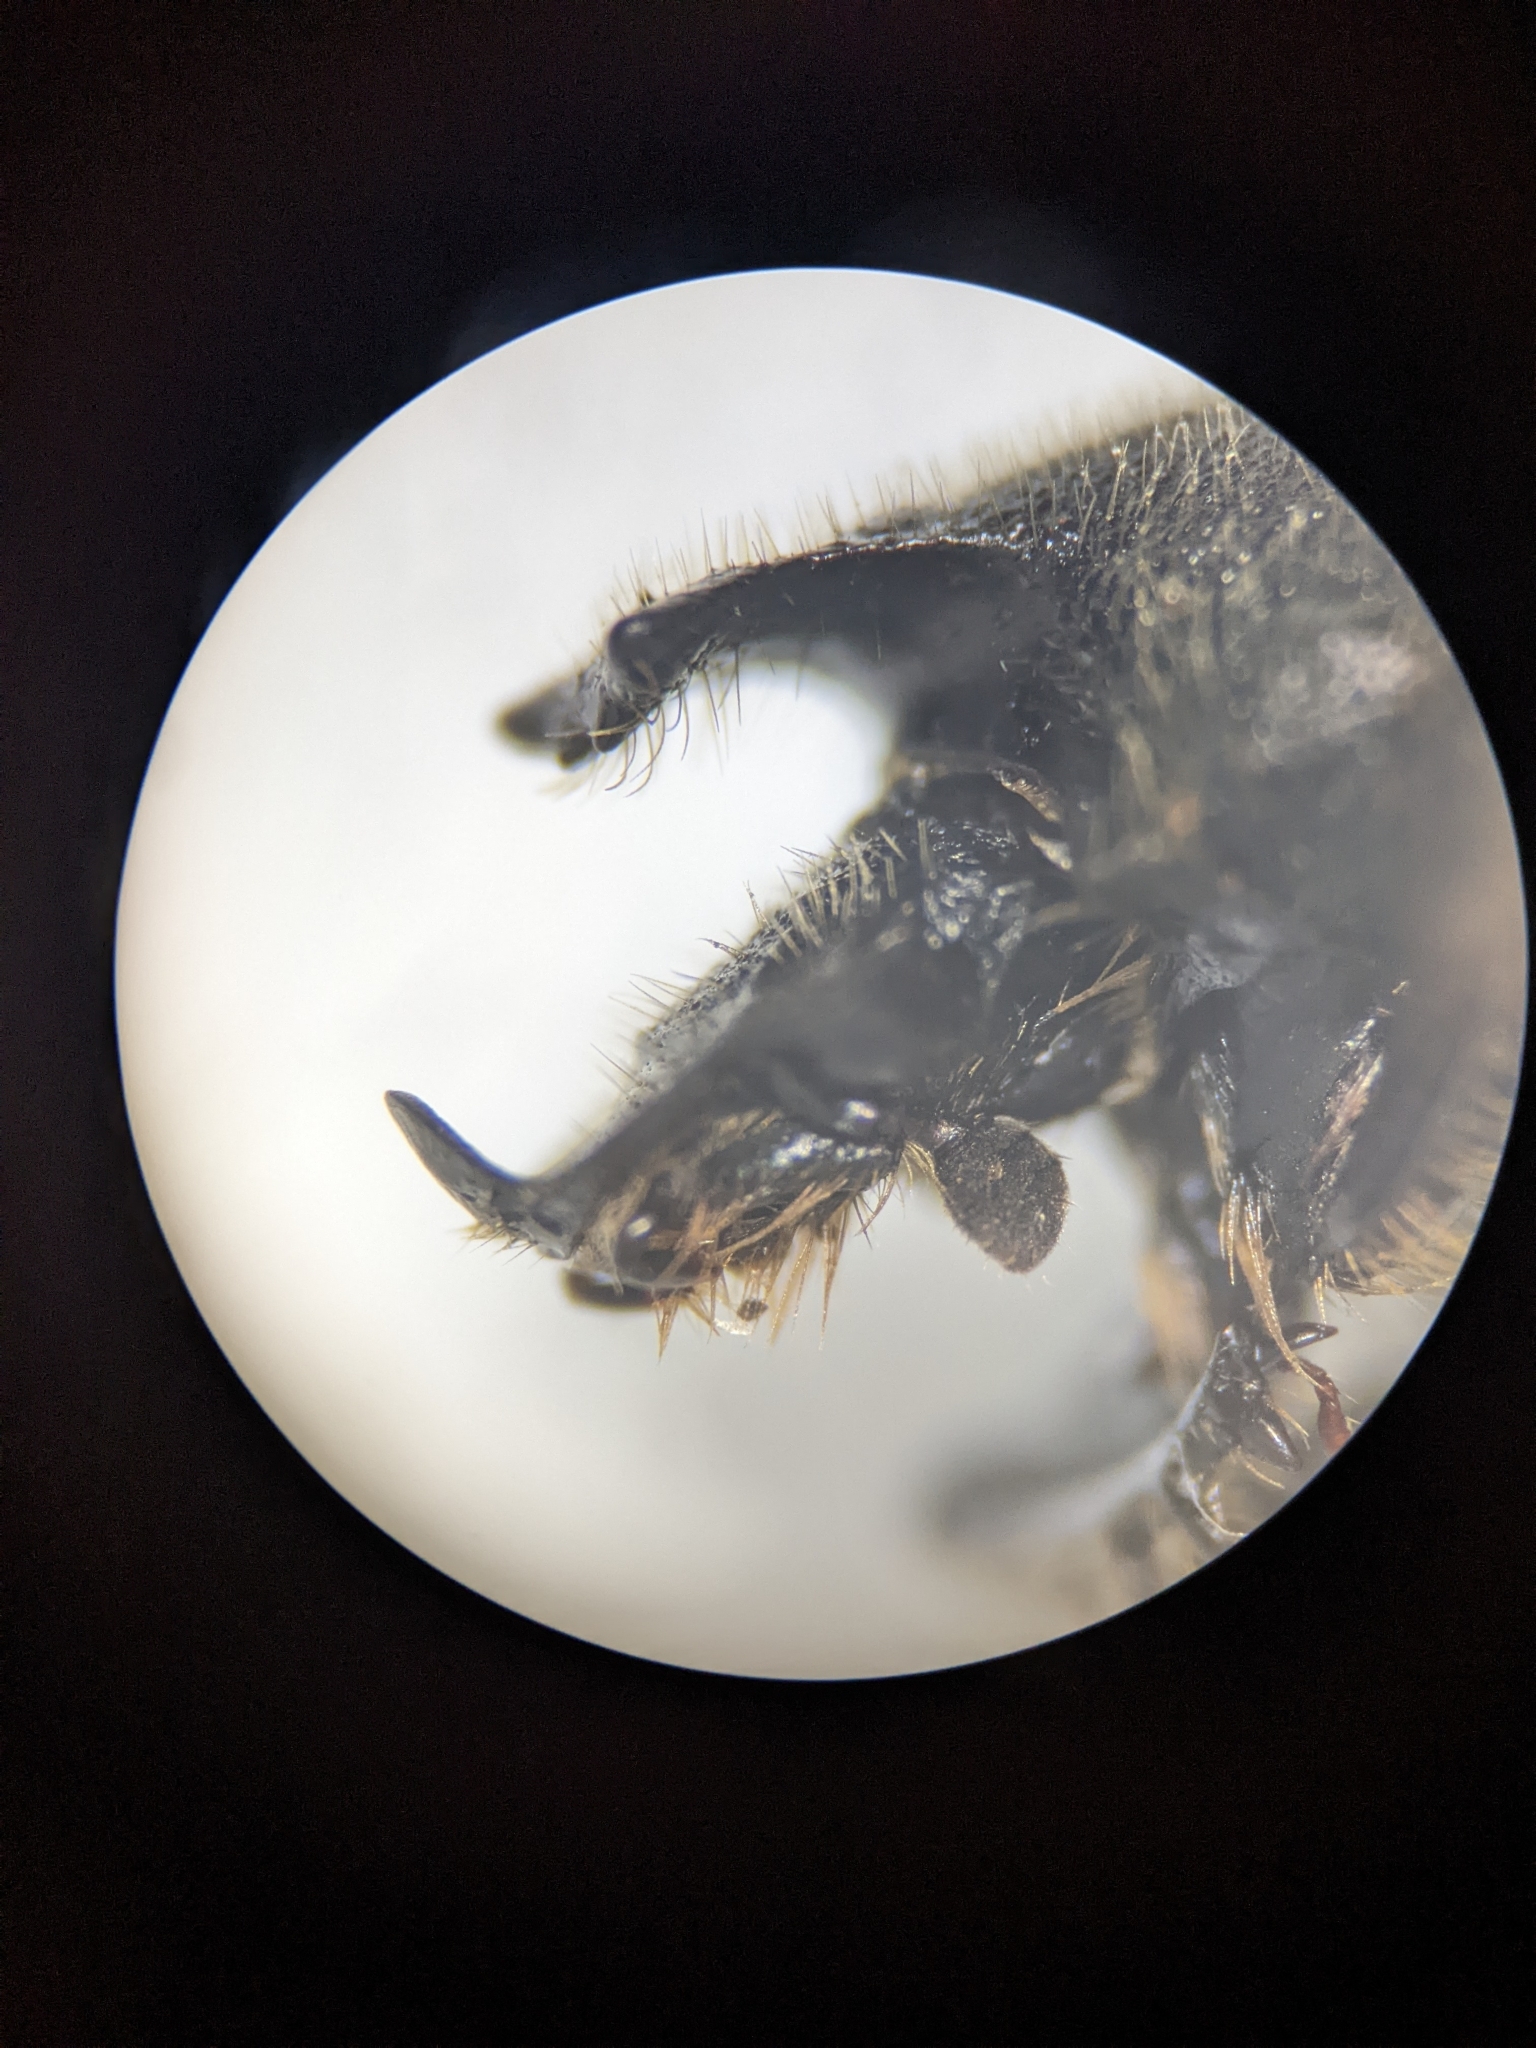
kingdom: Animalia
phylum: Arthropoda
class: Insecta
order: Coleoptera
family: Scarabaeidae
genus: Onthophagus
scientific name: Onthophagus hecate
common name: Scooped scarab
